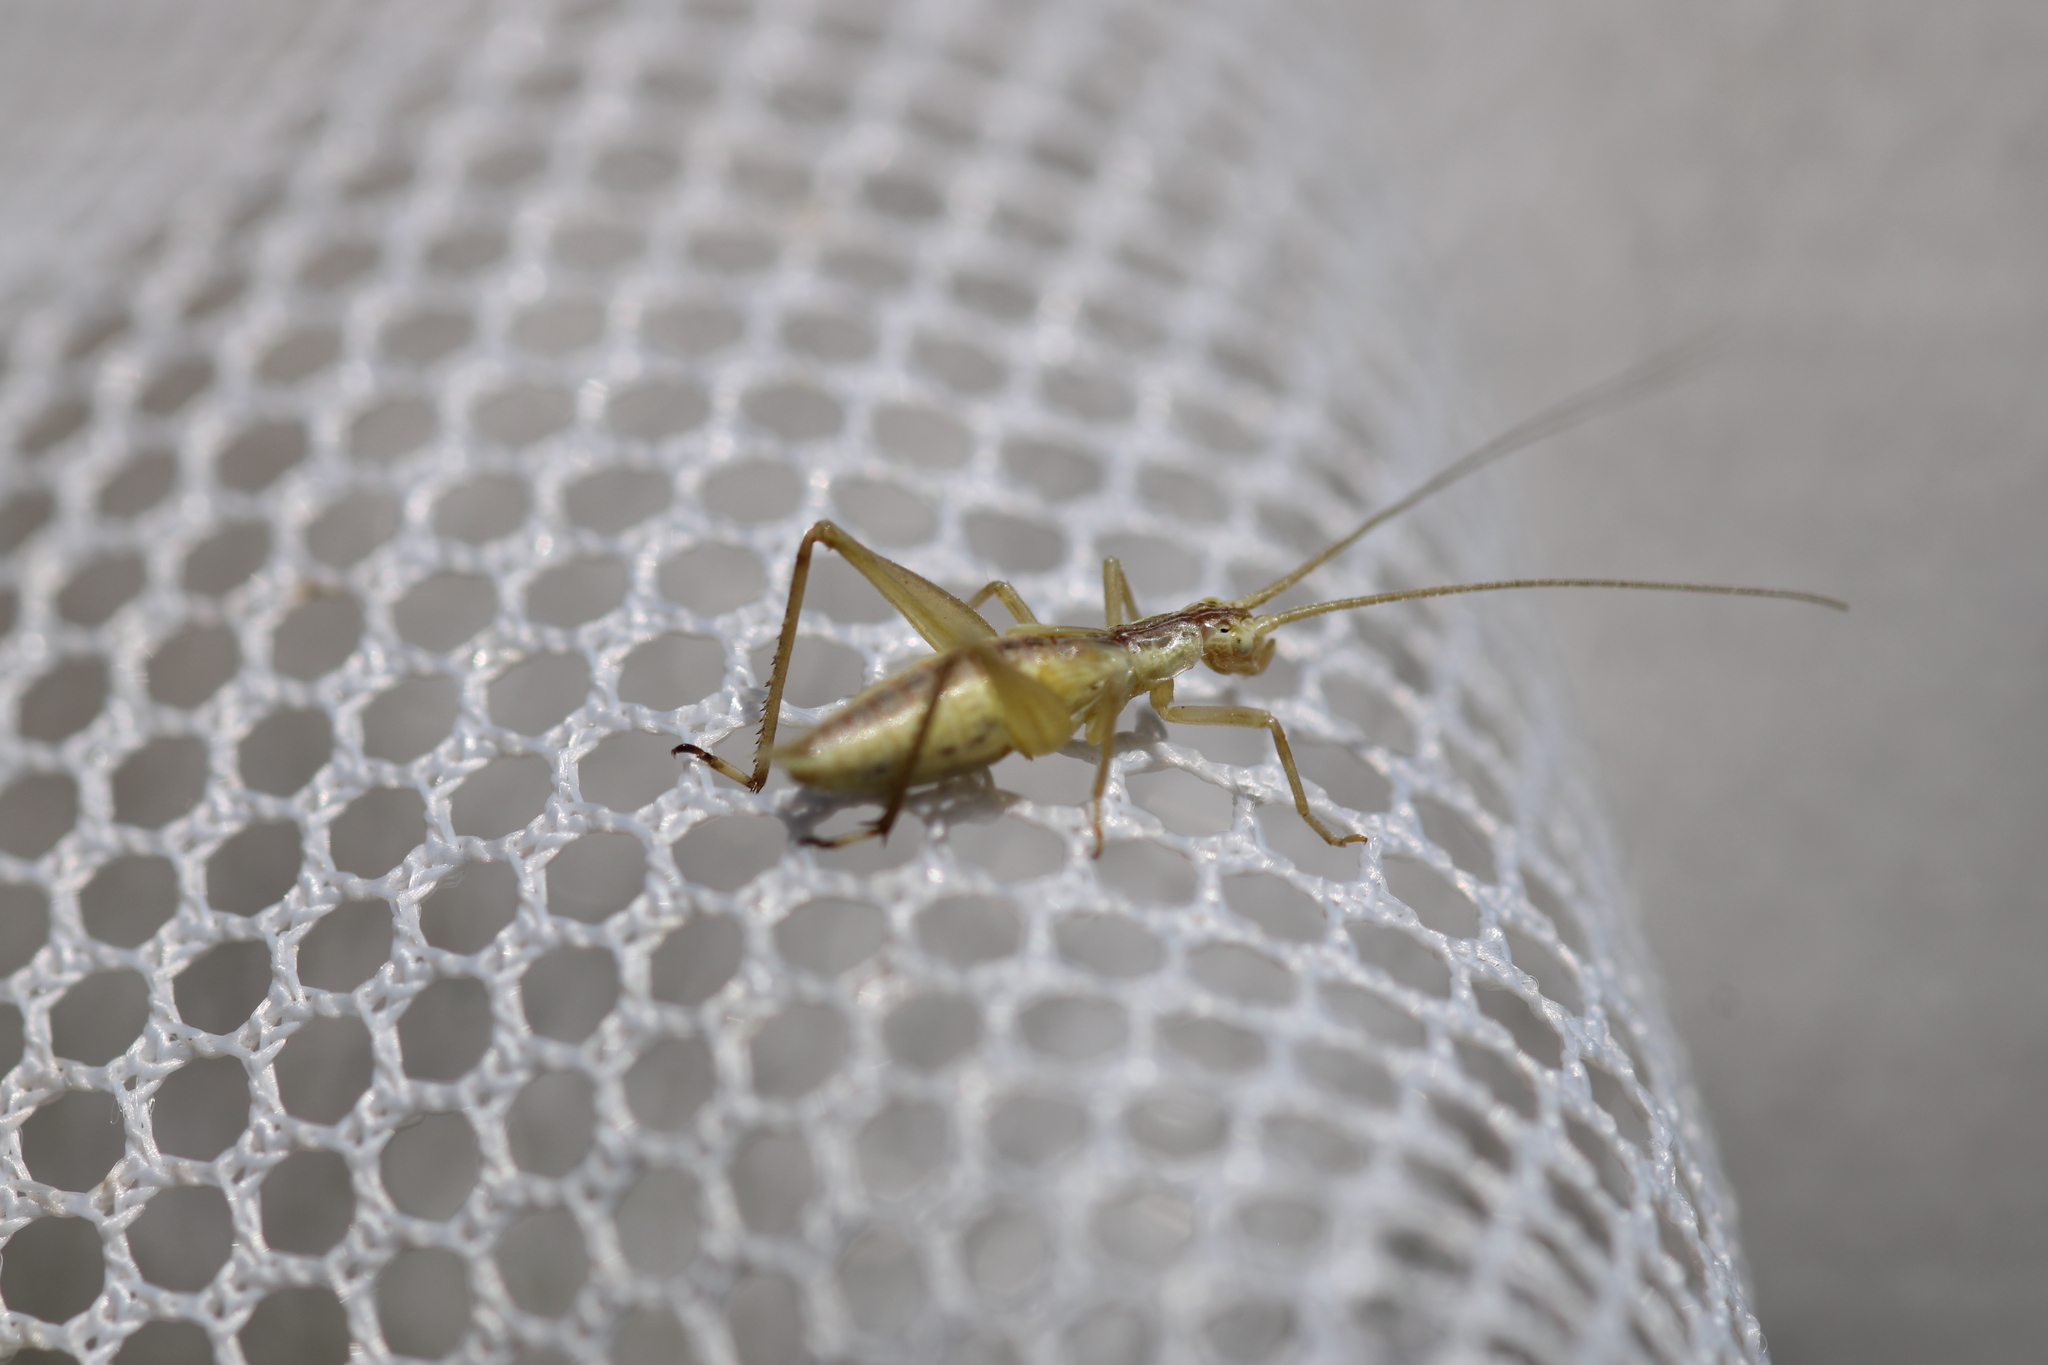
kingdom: Animalia
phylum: Arthropoda
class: Insecta
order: Orthoptera
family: Gryllidae
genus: Oecanthus
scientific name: Oecanthus pellucens
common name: Tree-cricket
